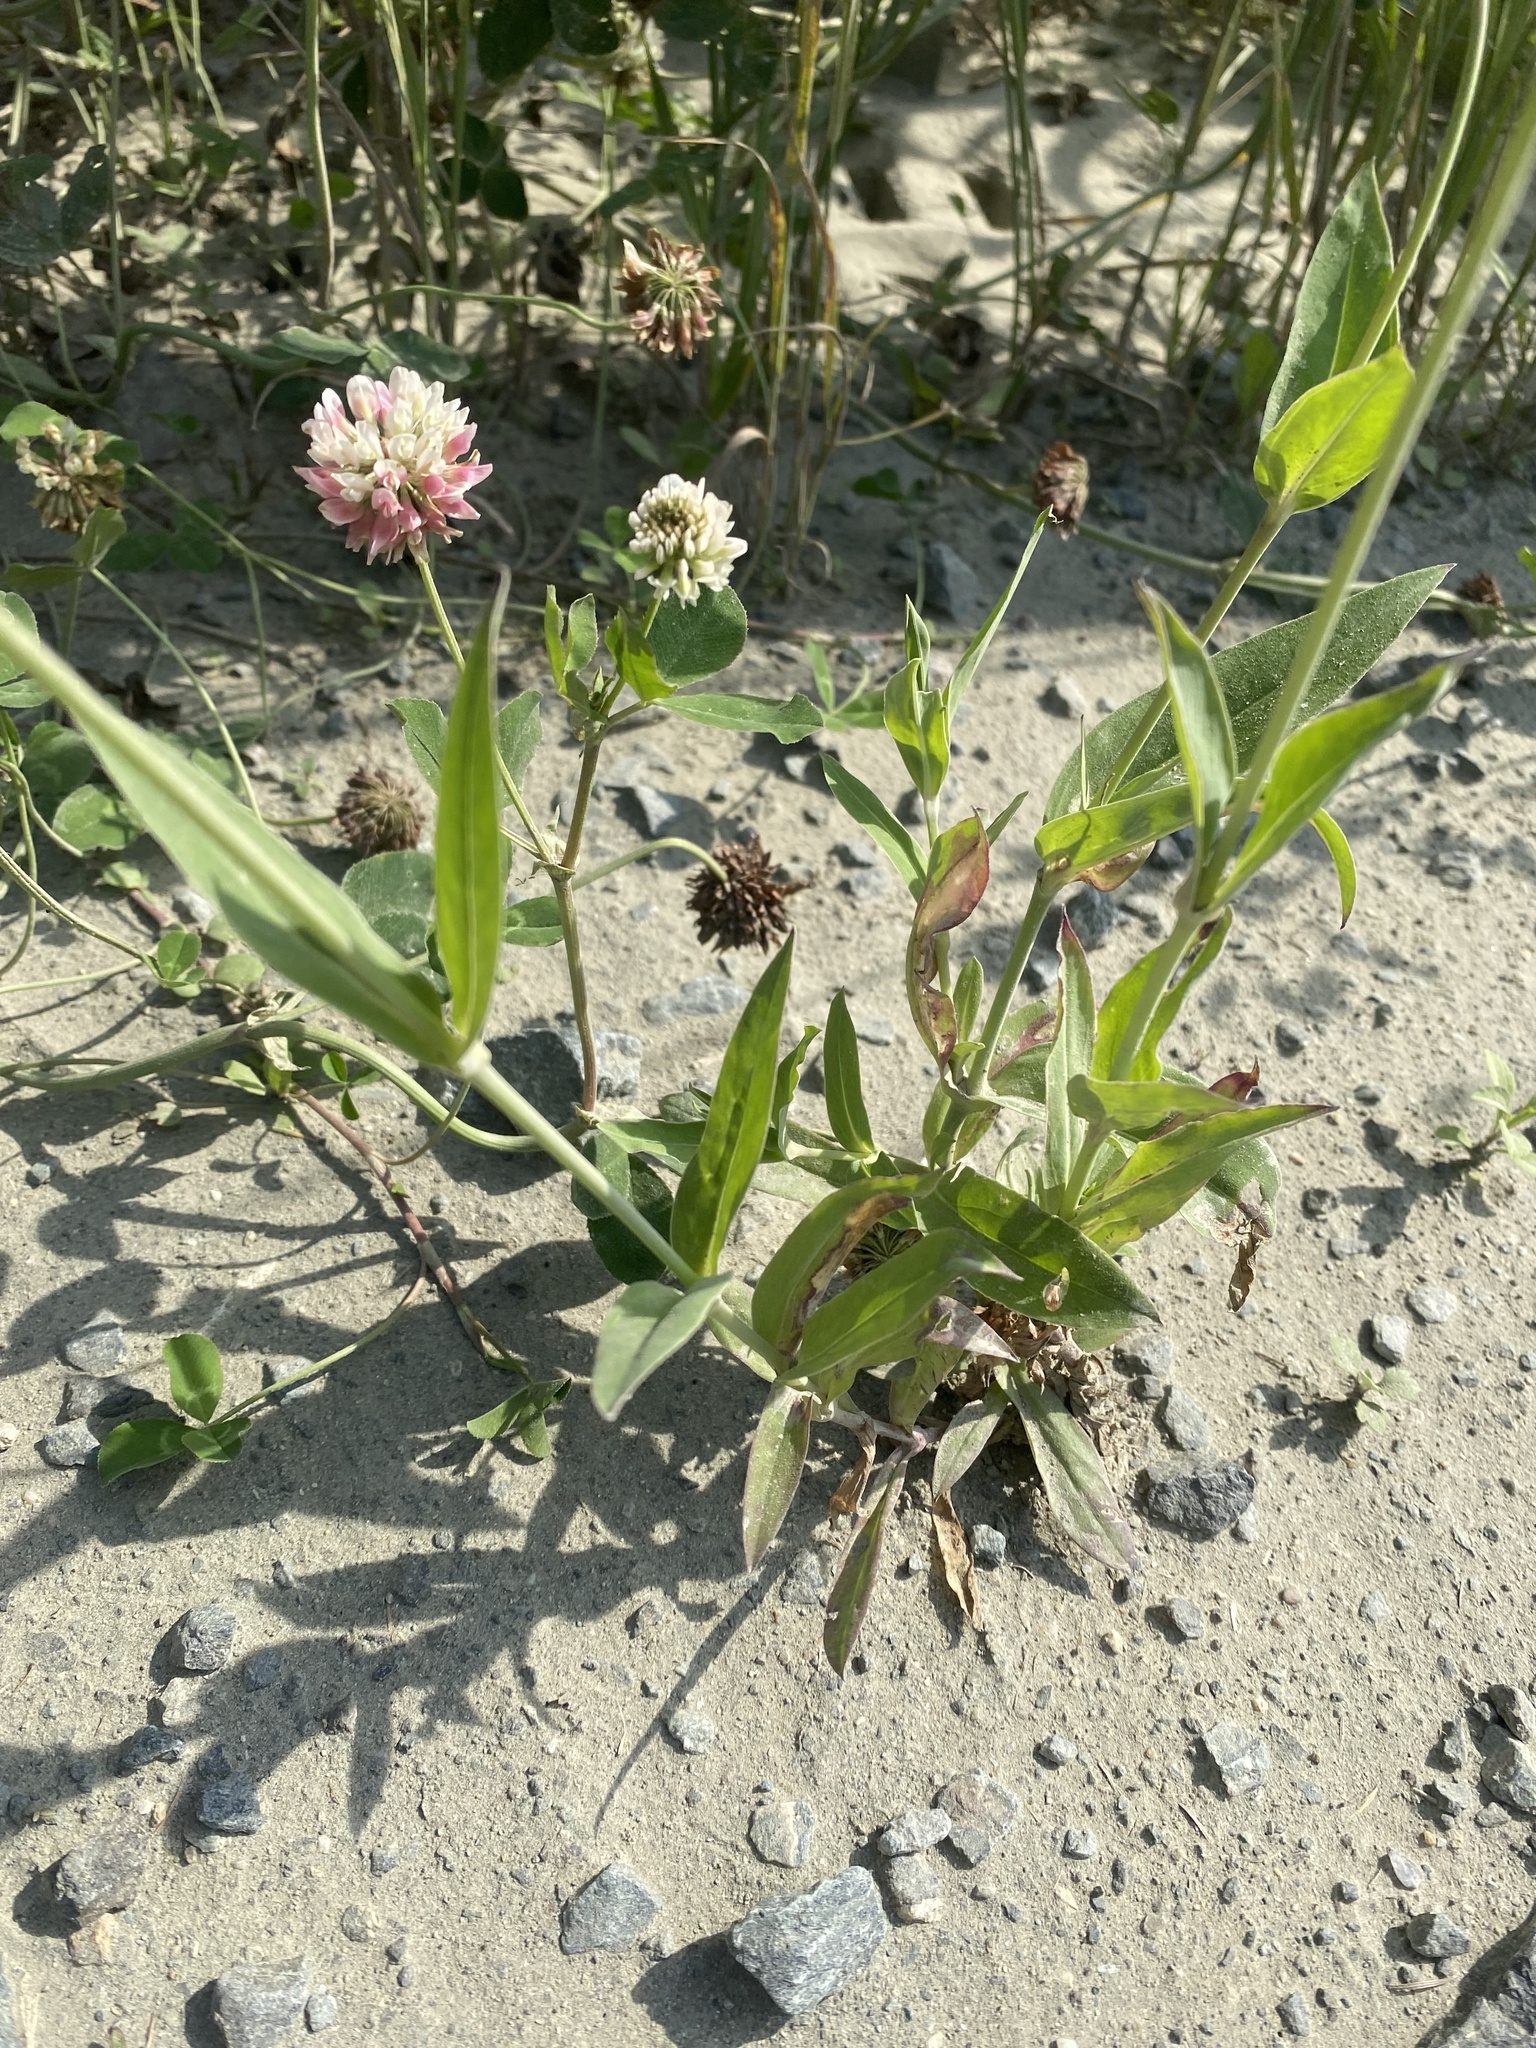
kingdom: Plantae
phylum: Tracheophyta
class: Magnoliopsida
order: Fabales
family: Fabaceae
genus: Trifolium
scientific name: Trifolium hybridum
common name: Alsike clover
